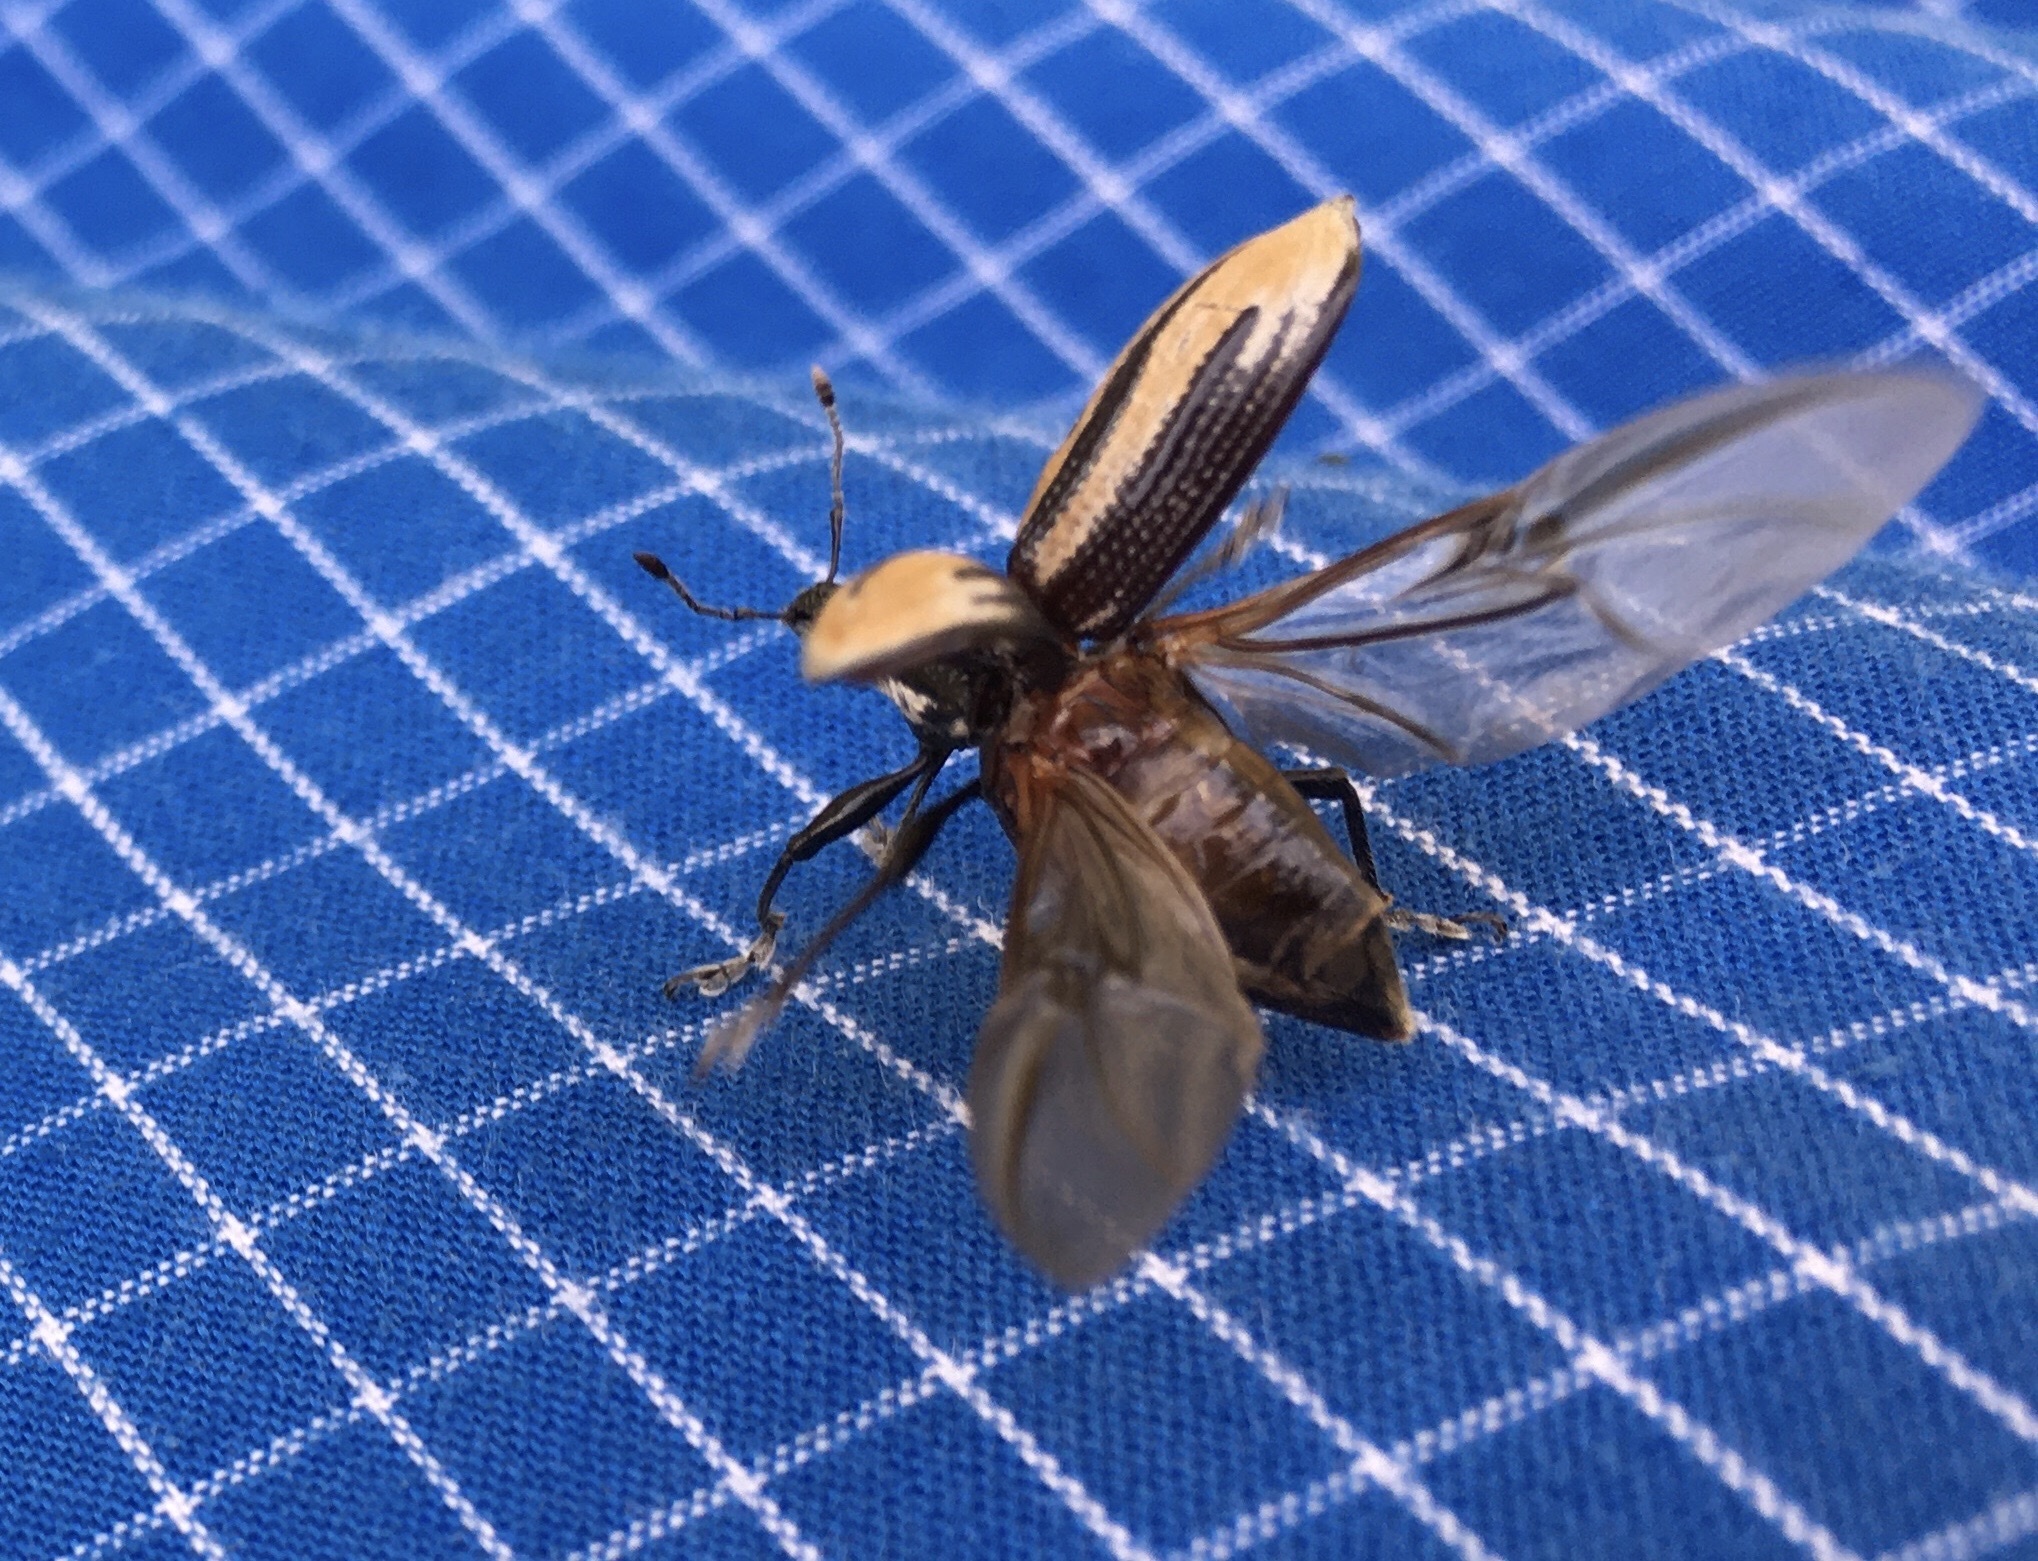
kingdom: Animalia
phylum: Arthropoda
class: Insecta
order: Coleoptera
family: Curculionidae
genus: Diaprepes
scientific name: Diaprepes abbreviatus
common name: Root weevil
